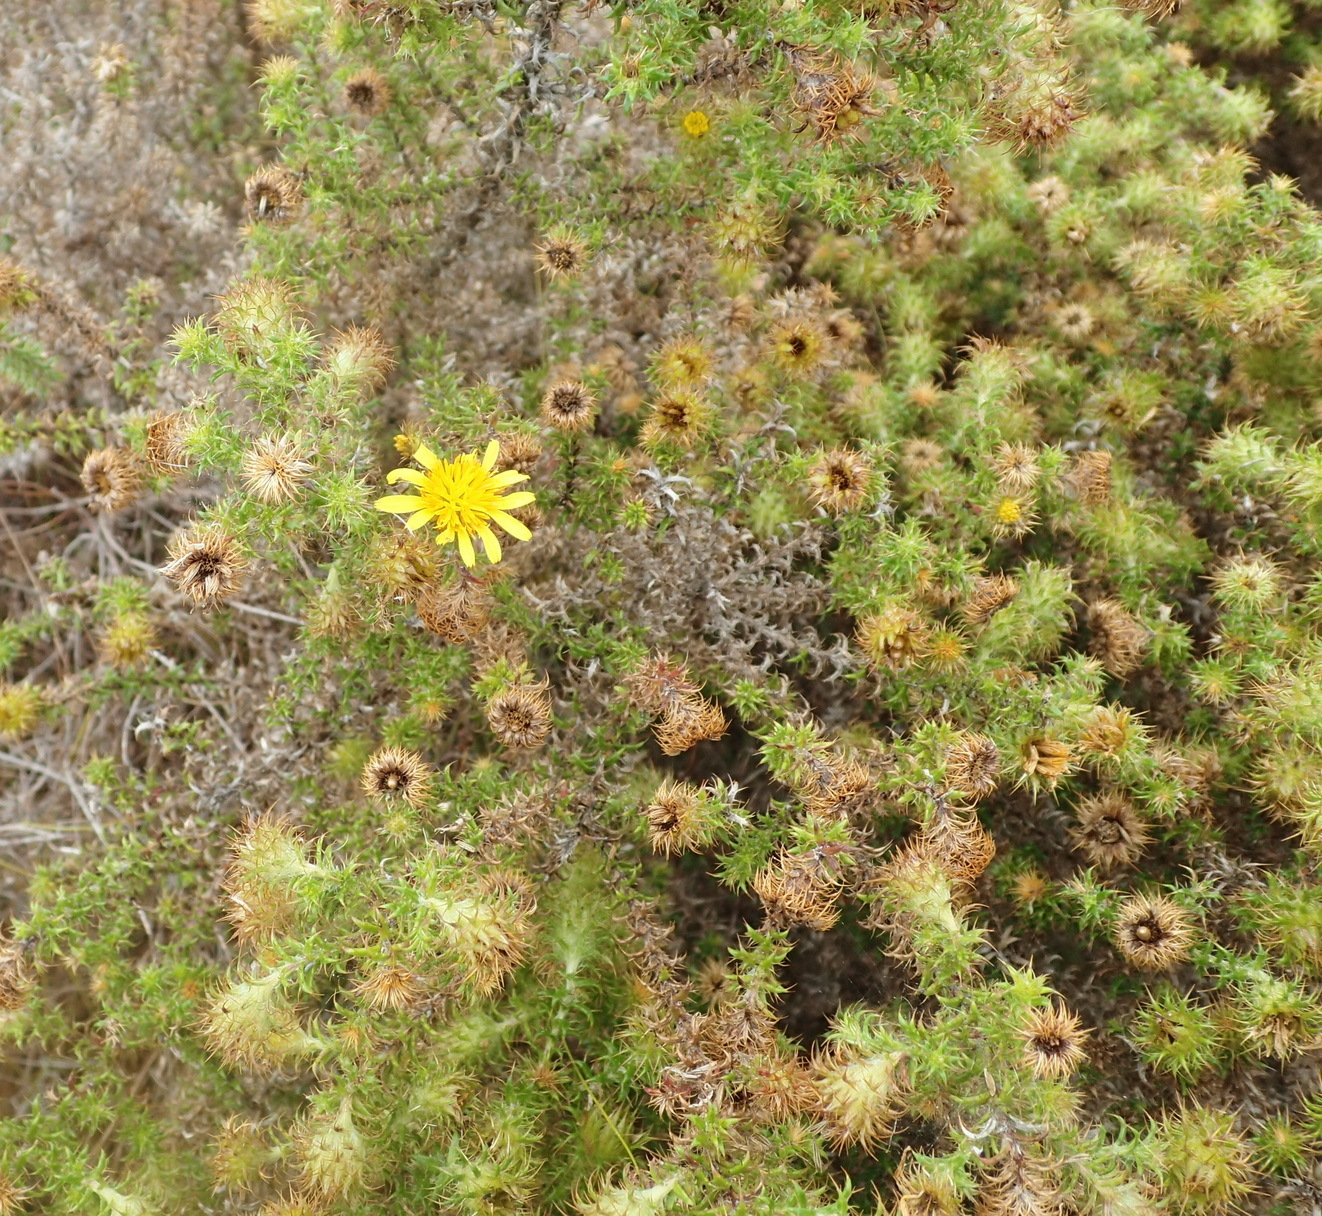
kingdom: Plantae
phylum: Tracheophyta
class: Magnoliopsida
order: Asterales
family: Asteraceae
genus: Cullumia
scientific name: Cullumia decurrens
